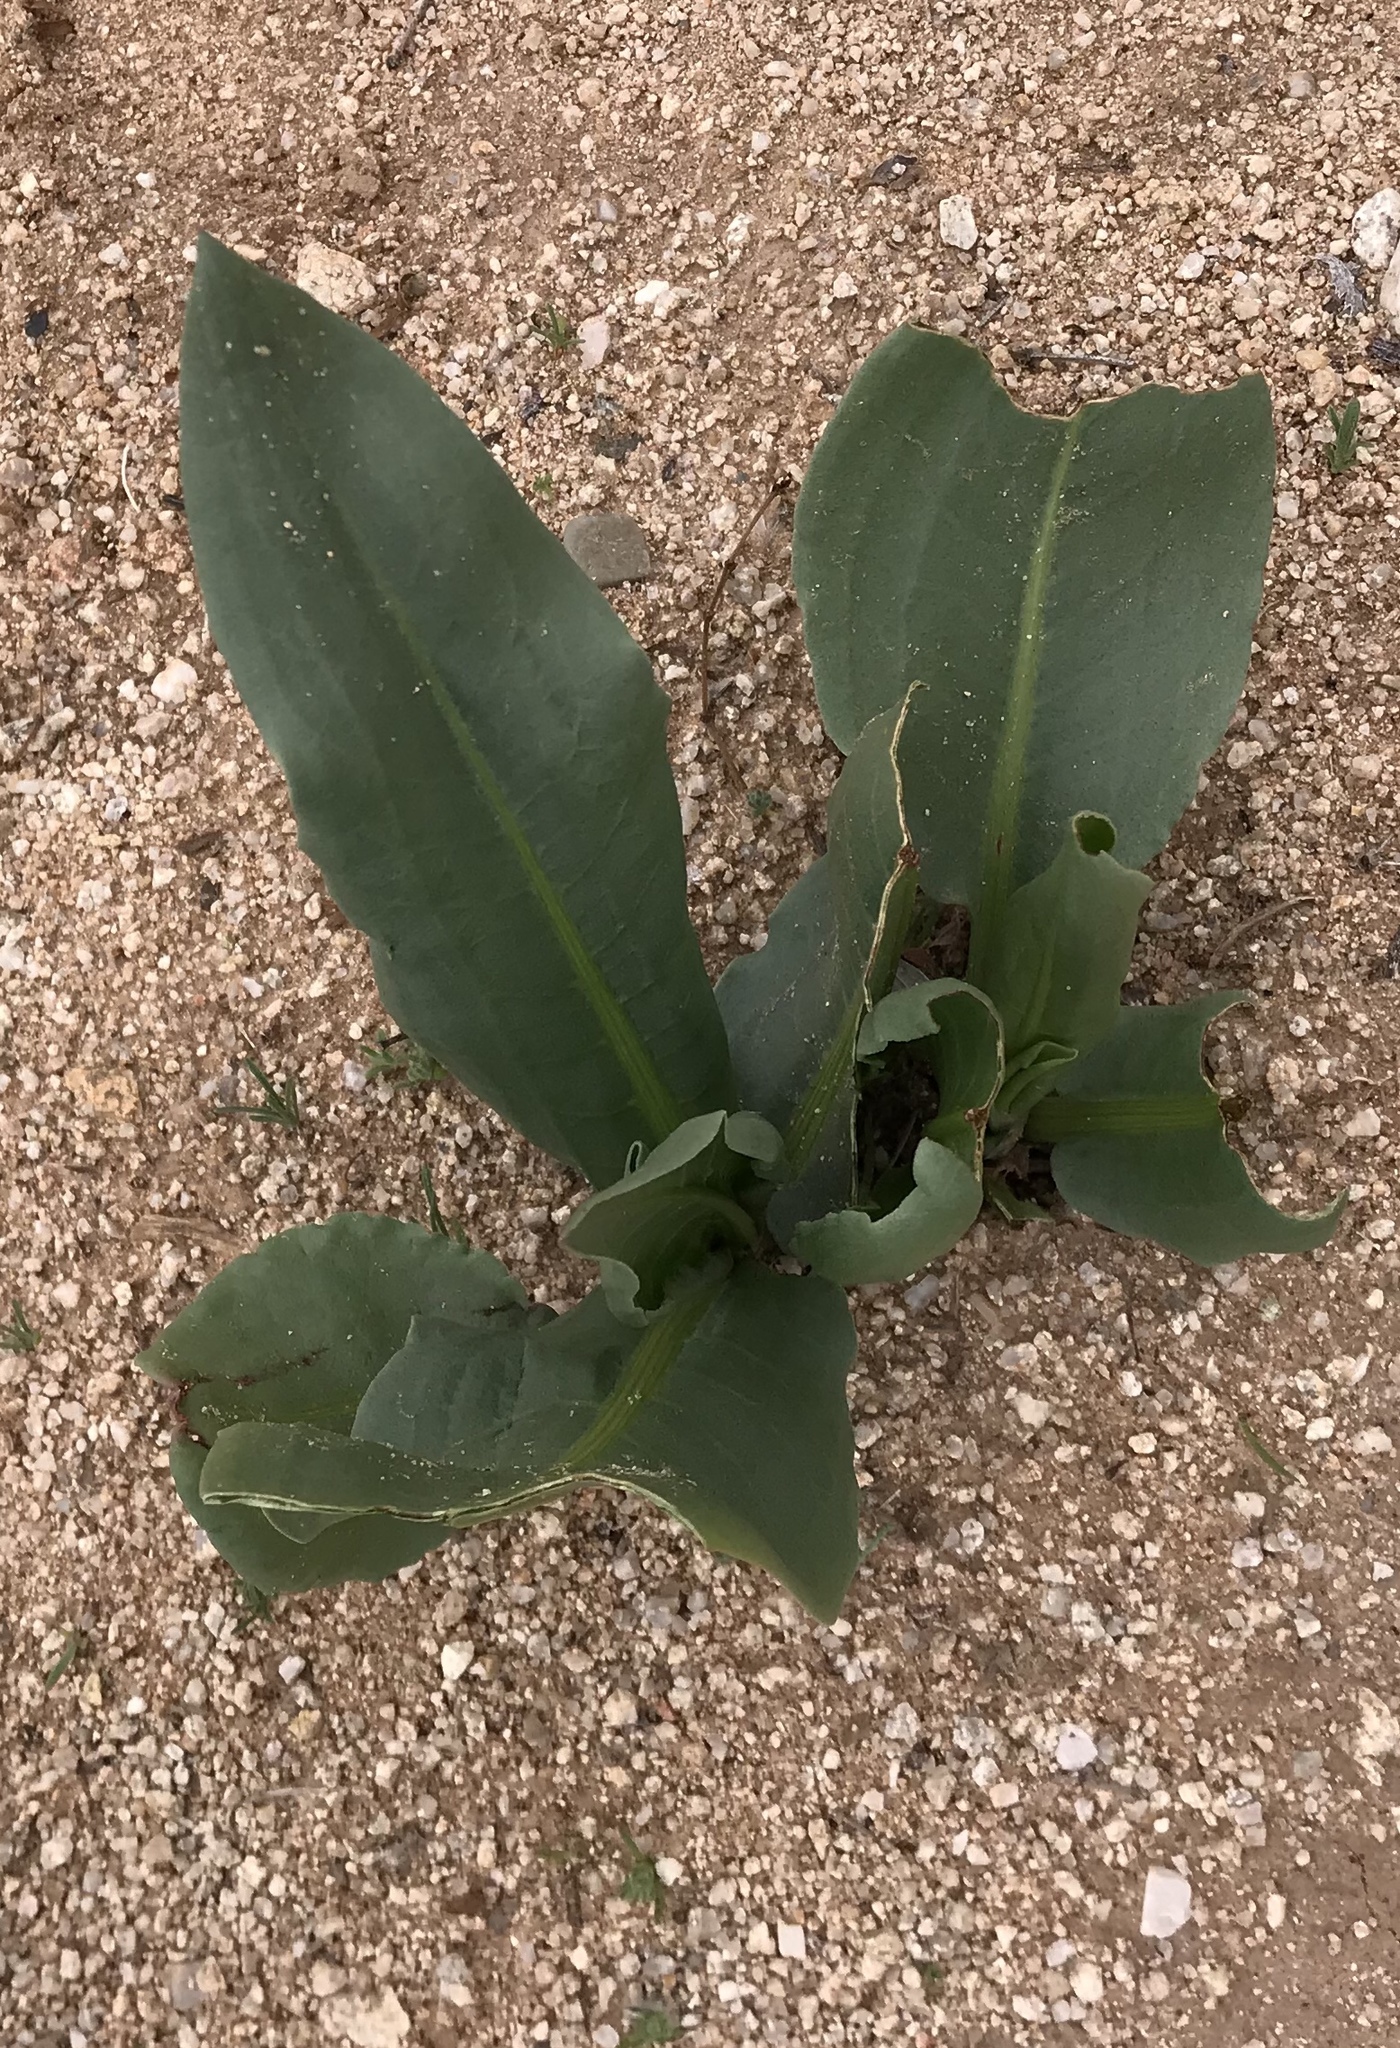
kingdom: Plantae
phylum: Tracheophyta
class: Magnoliopsida
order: Caryophyllales
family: Polygonaceae
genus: Rumex
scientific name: Rumex hymenosepalus
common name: Ganagra
